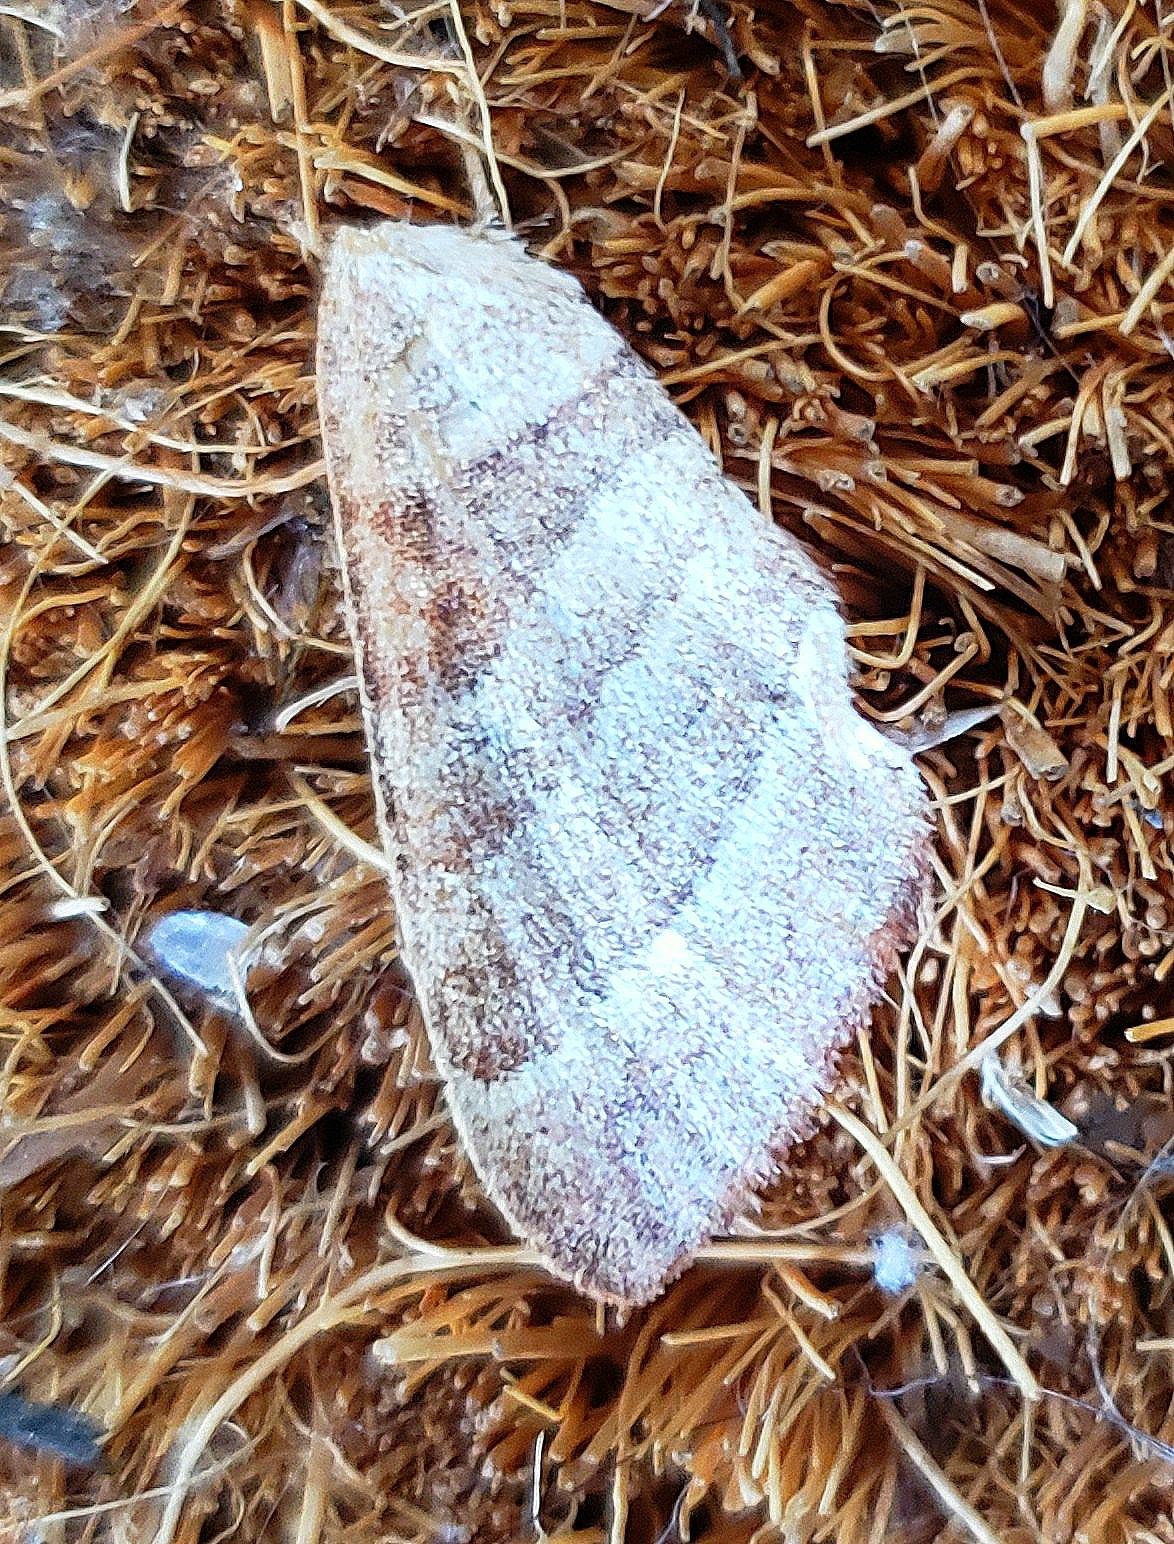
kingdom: Animalia
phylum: Arthropoda
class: Insecta
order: Lepidoptera
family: Notodontidae
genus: Datana
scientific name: Datana integerrima
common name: Walnut caterpillar
